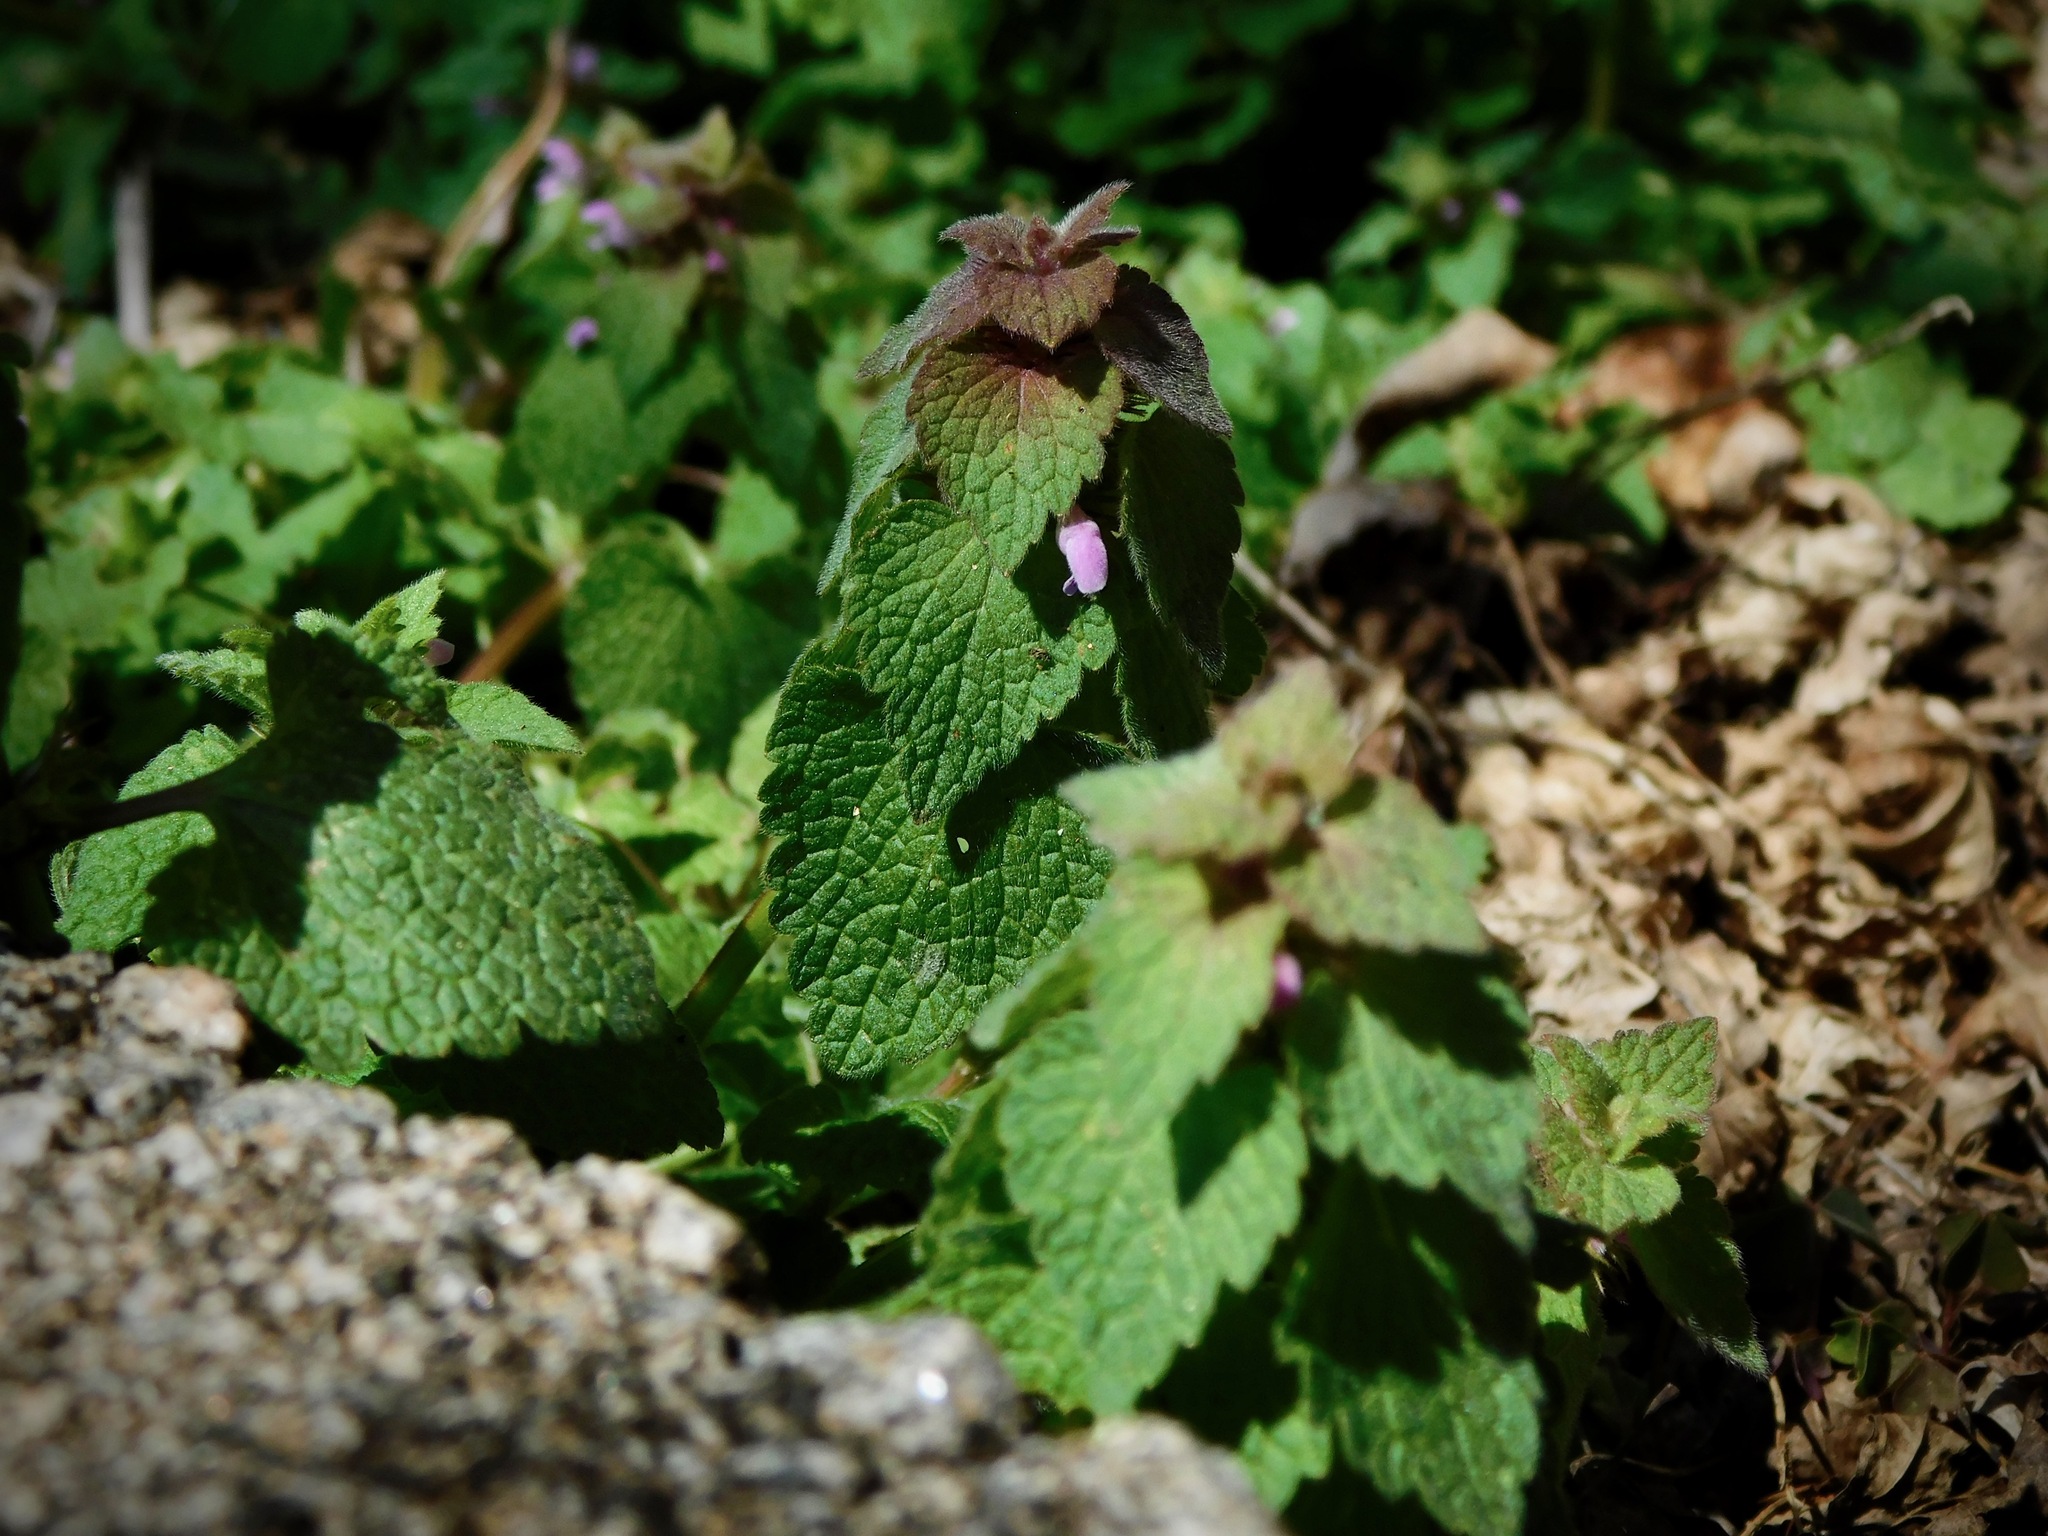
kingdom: Plantae
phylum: Tracheophyta
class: Magnoliopsida
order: Lamiales
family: Lamiaceae
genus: Lamium
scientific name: Lamium purpureum
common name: Red dead-nettle
